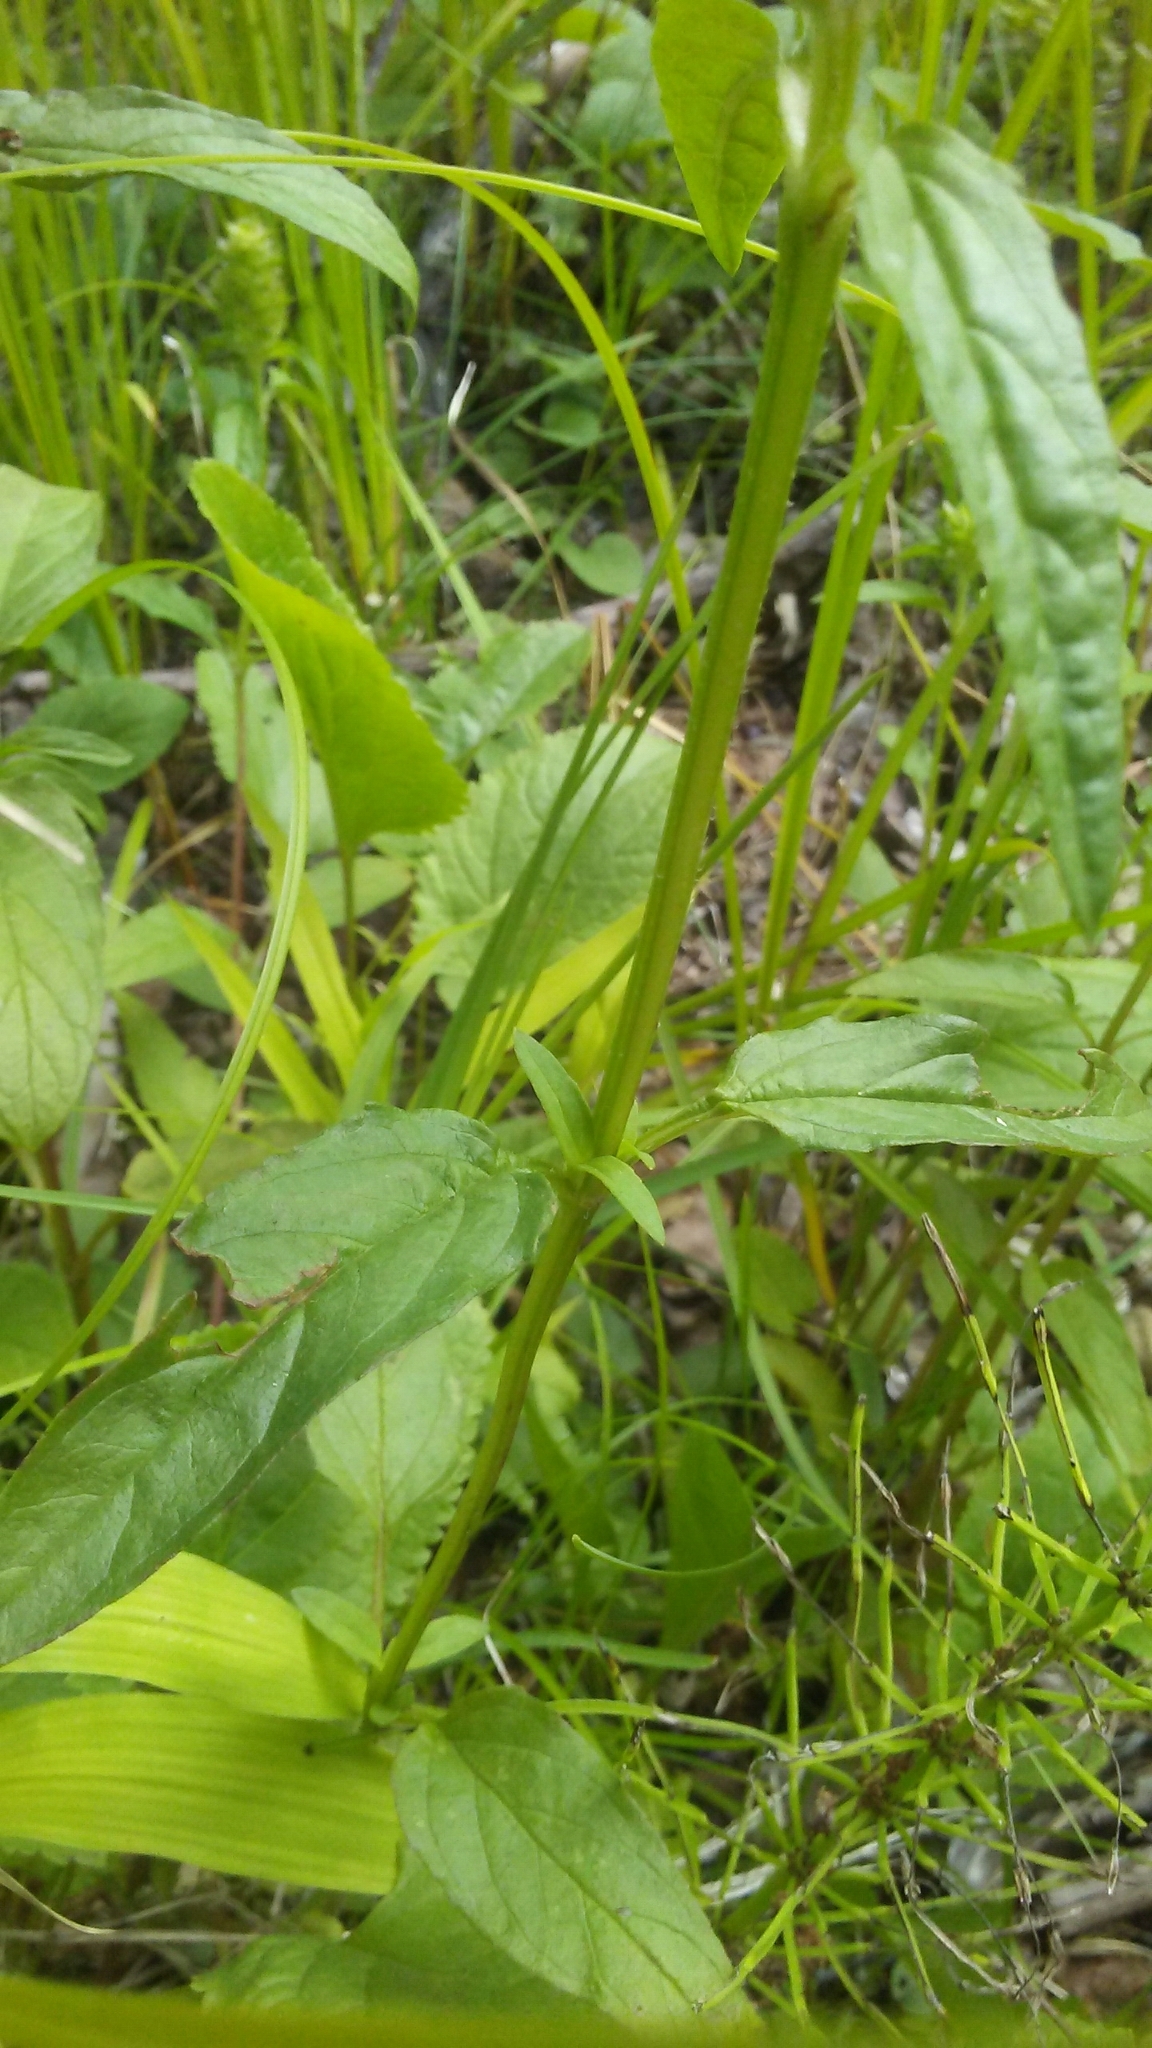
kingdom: Plantae
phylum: Tracheophyta
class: Magnoliopsida
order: Lamiales
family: Lamiaceae
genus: Prunella
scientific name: Prunella vulgaris
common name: Heal-all
